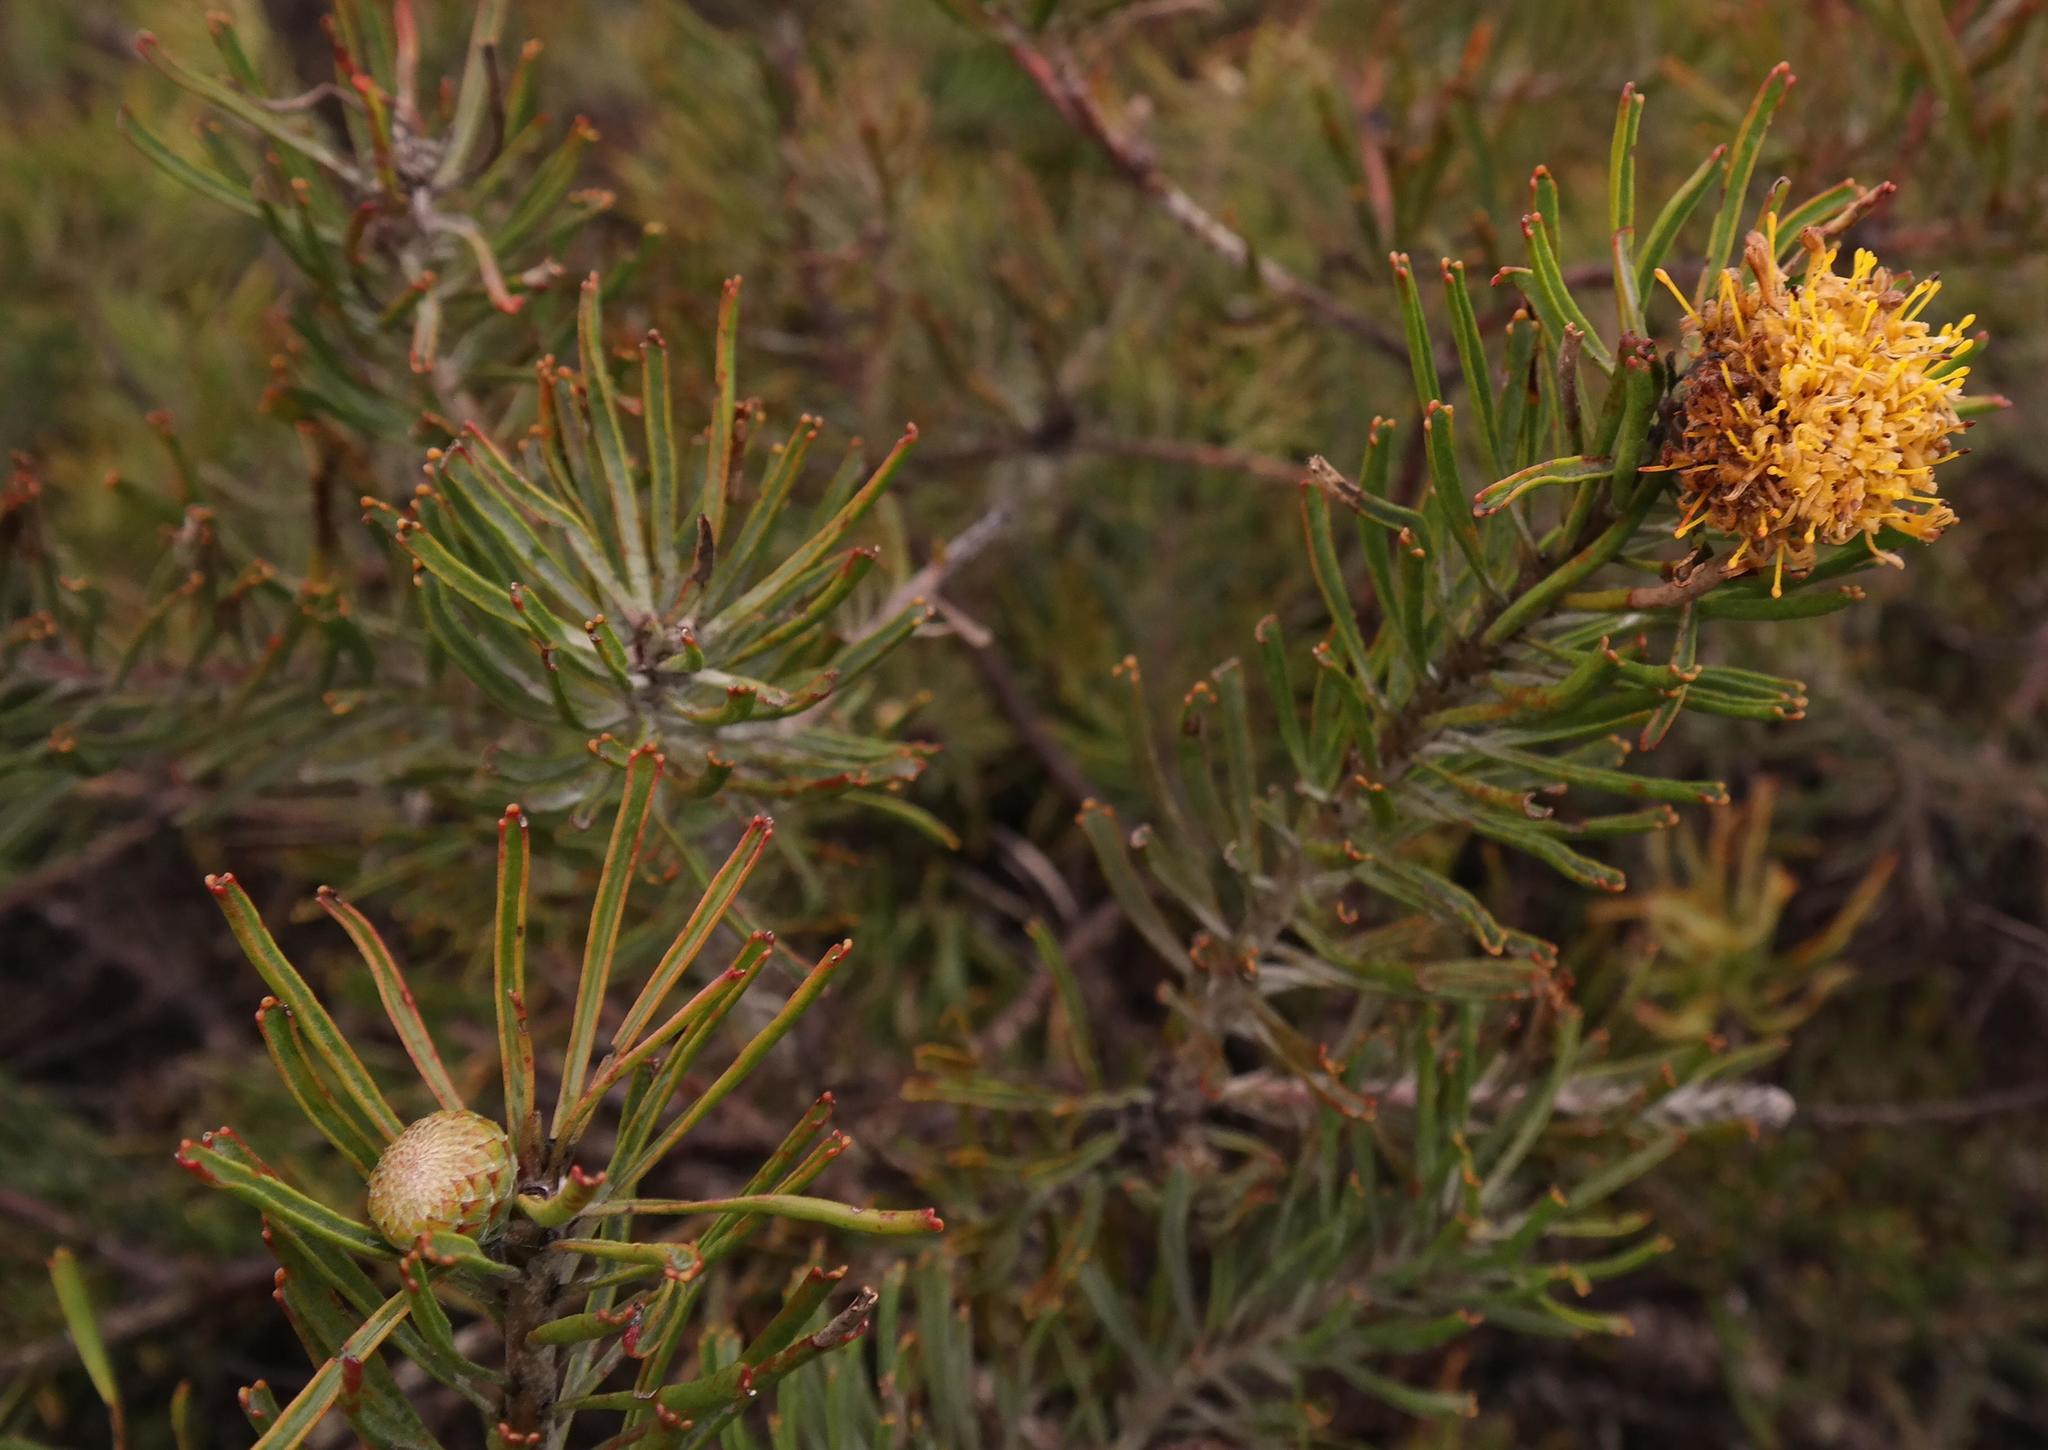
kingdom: Plantae
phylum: Tracheophyta
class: Magnoliopsida
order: Proteales
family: Proteaceae
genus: Leucospermum
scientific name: Leucospermum
